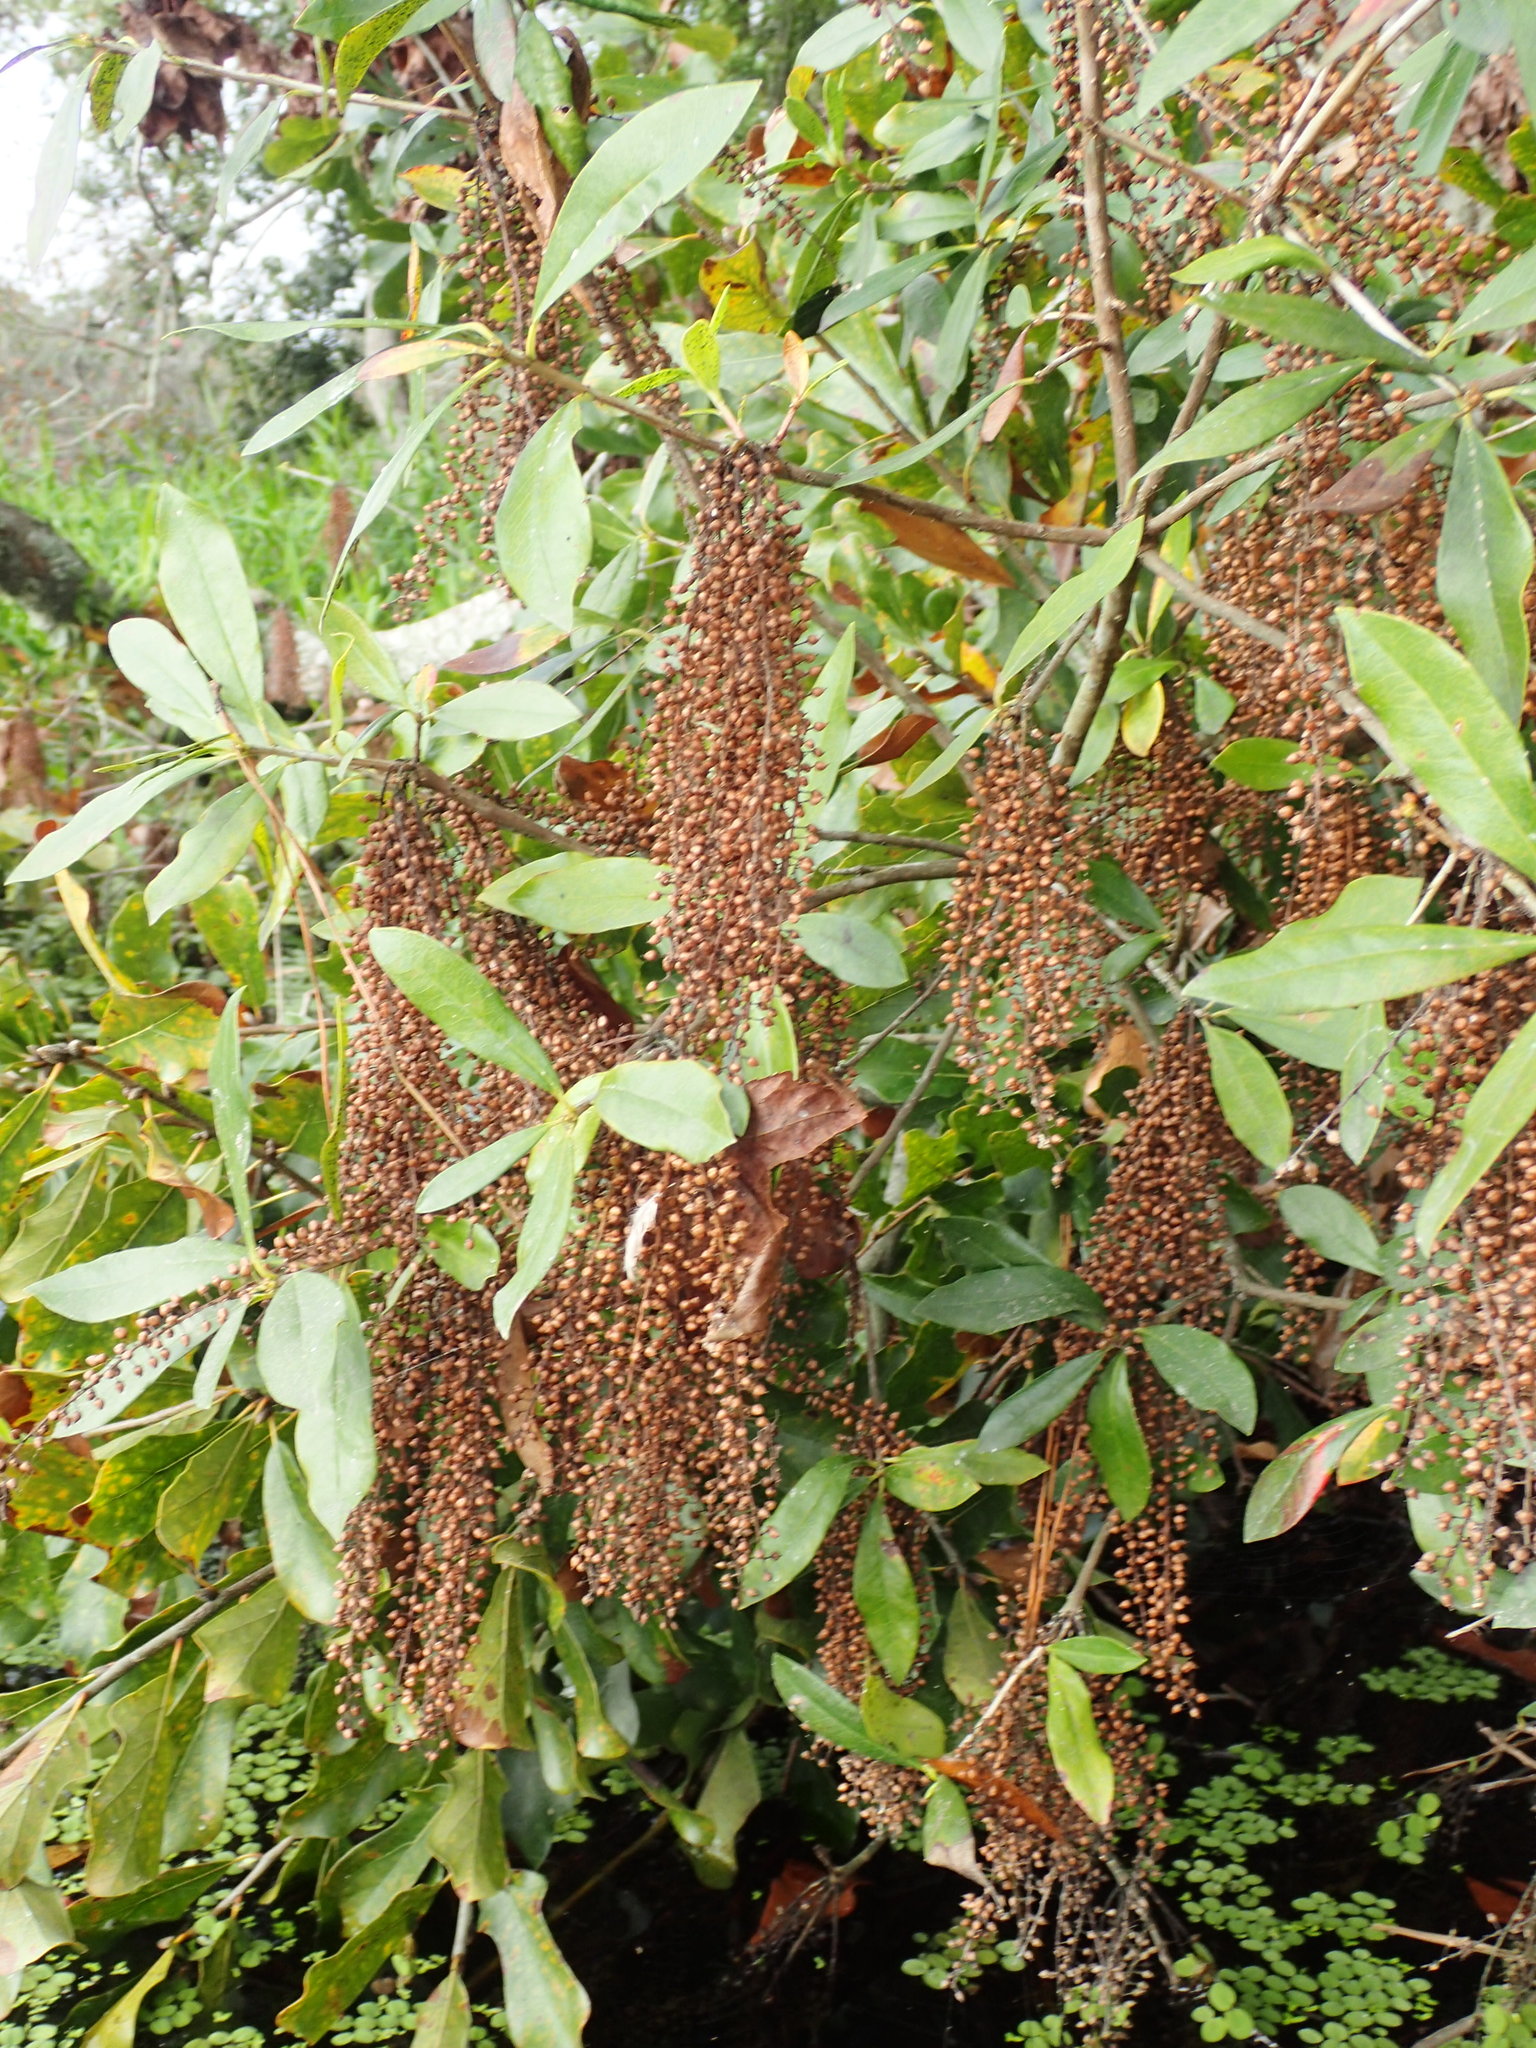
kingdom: Plantae
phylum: Tracheophyta
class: Magnoliopsida
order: Ericales
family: Cyrillaceae
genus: Cyrilla
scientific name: Cyrilla racemiflora
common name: Black titi
